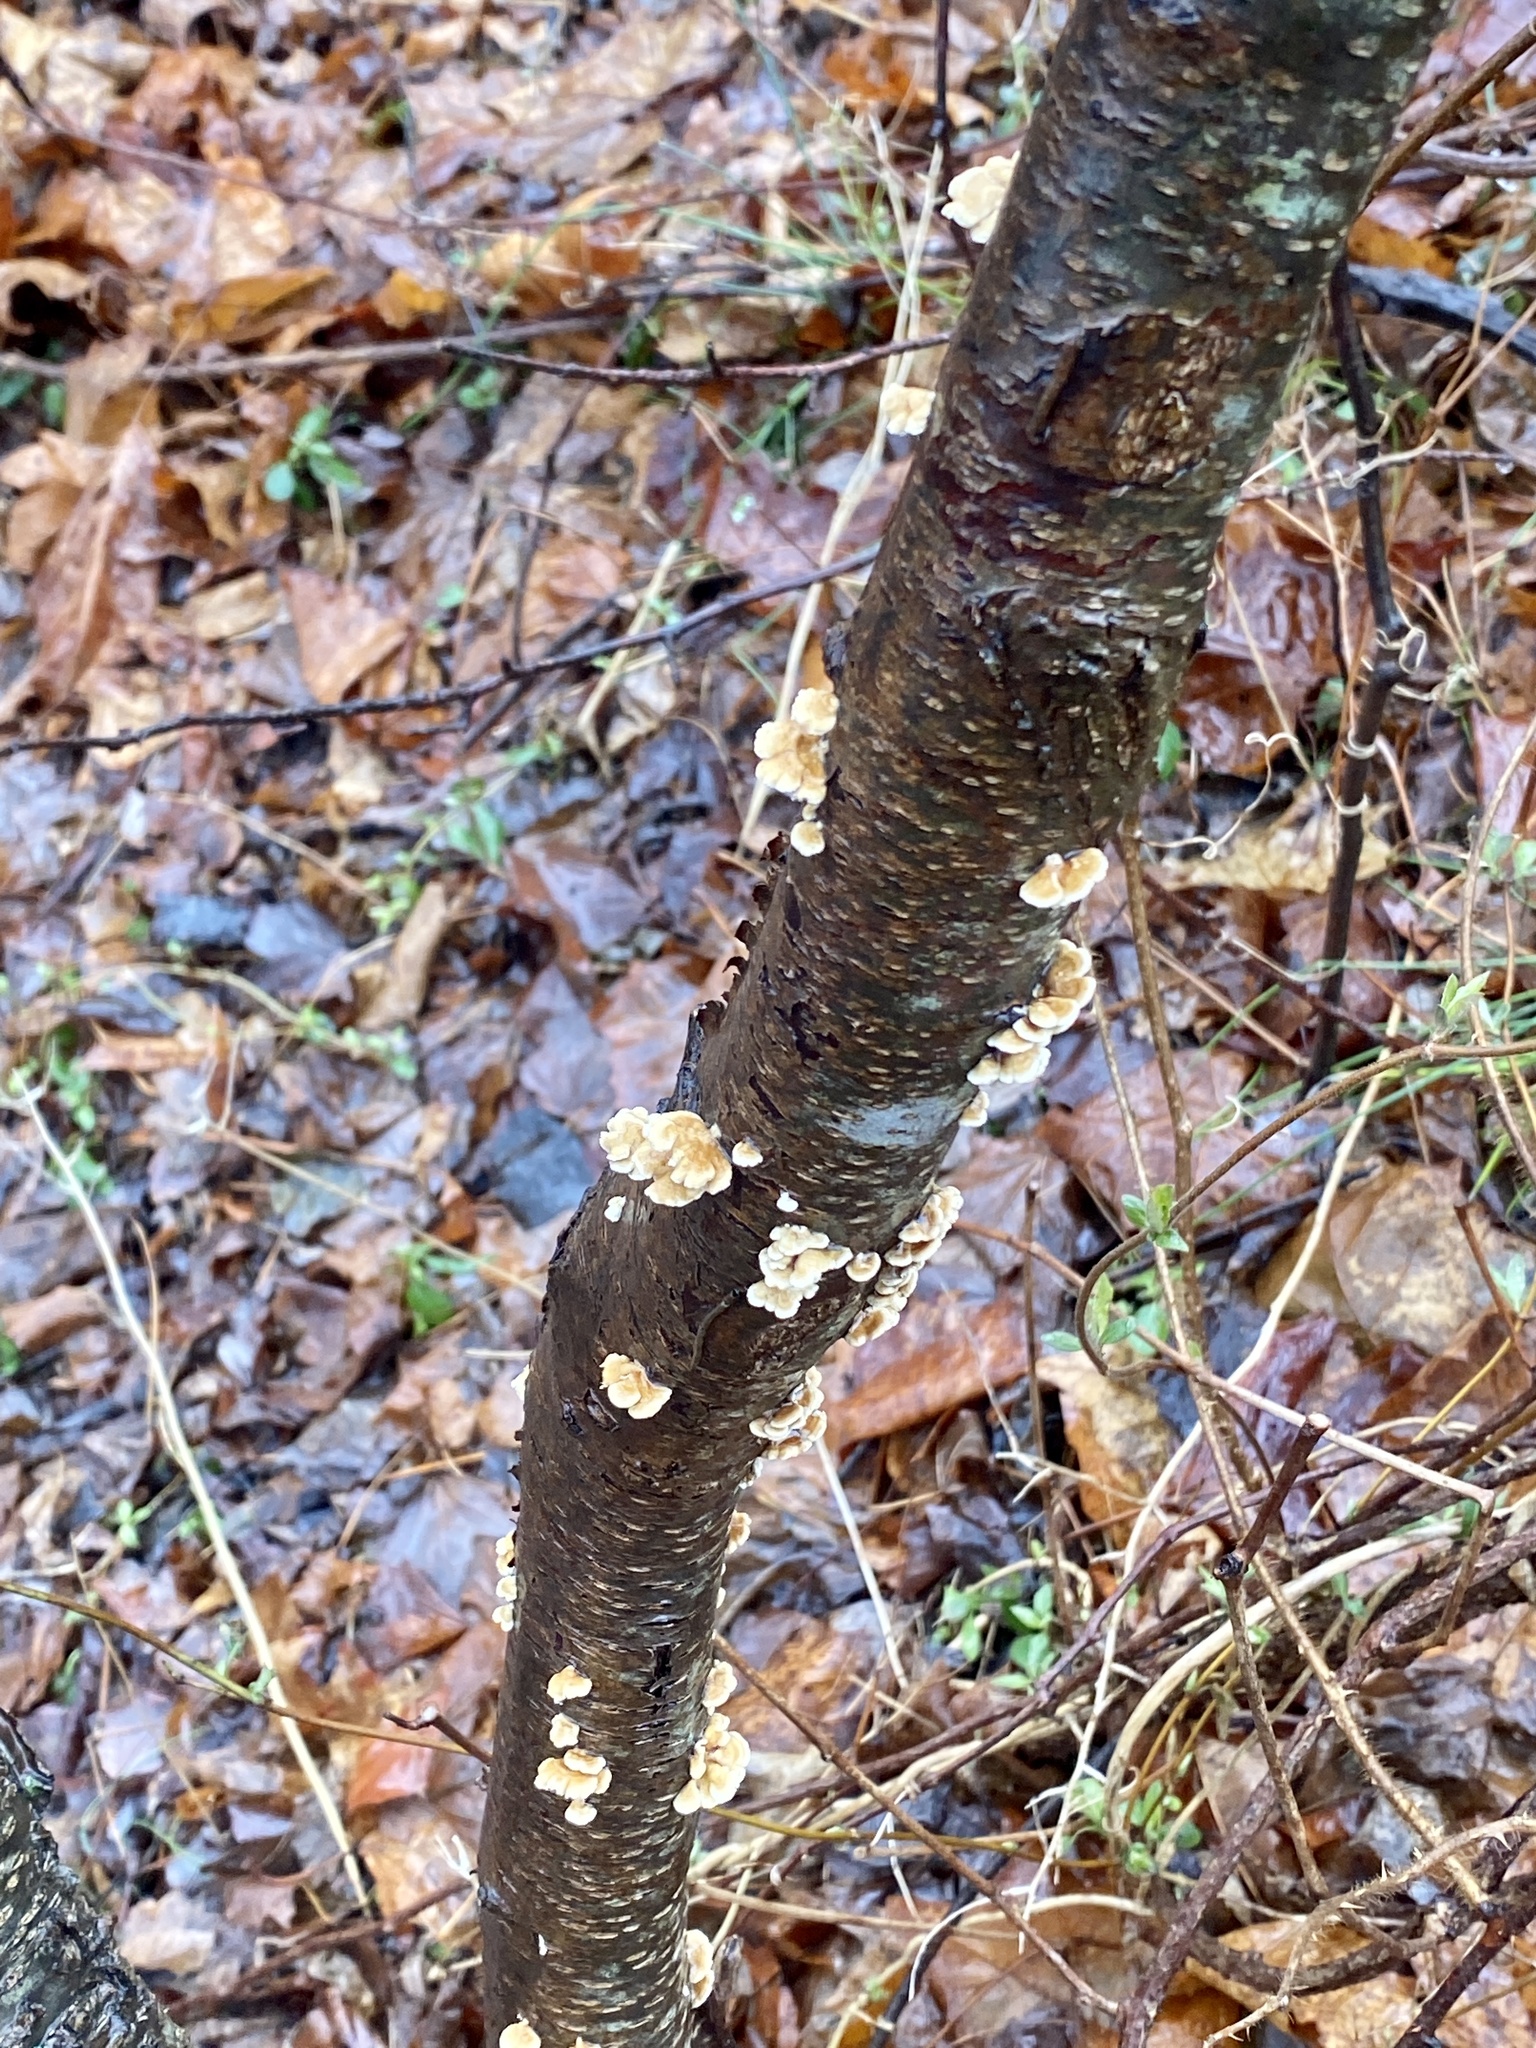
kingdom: Fungi
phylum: Basidiomycota
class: Agaricomycetes
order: Amylocorticiales
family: Amylocorticiaceae
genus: Plicaturopsis
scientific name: Plicaturopsis crispa
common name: Crimped gill
